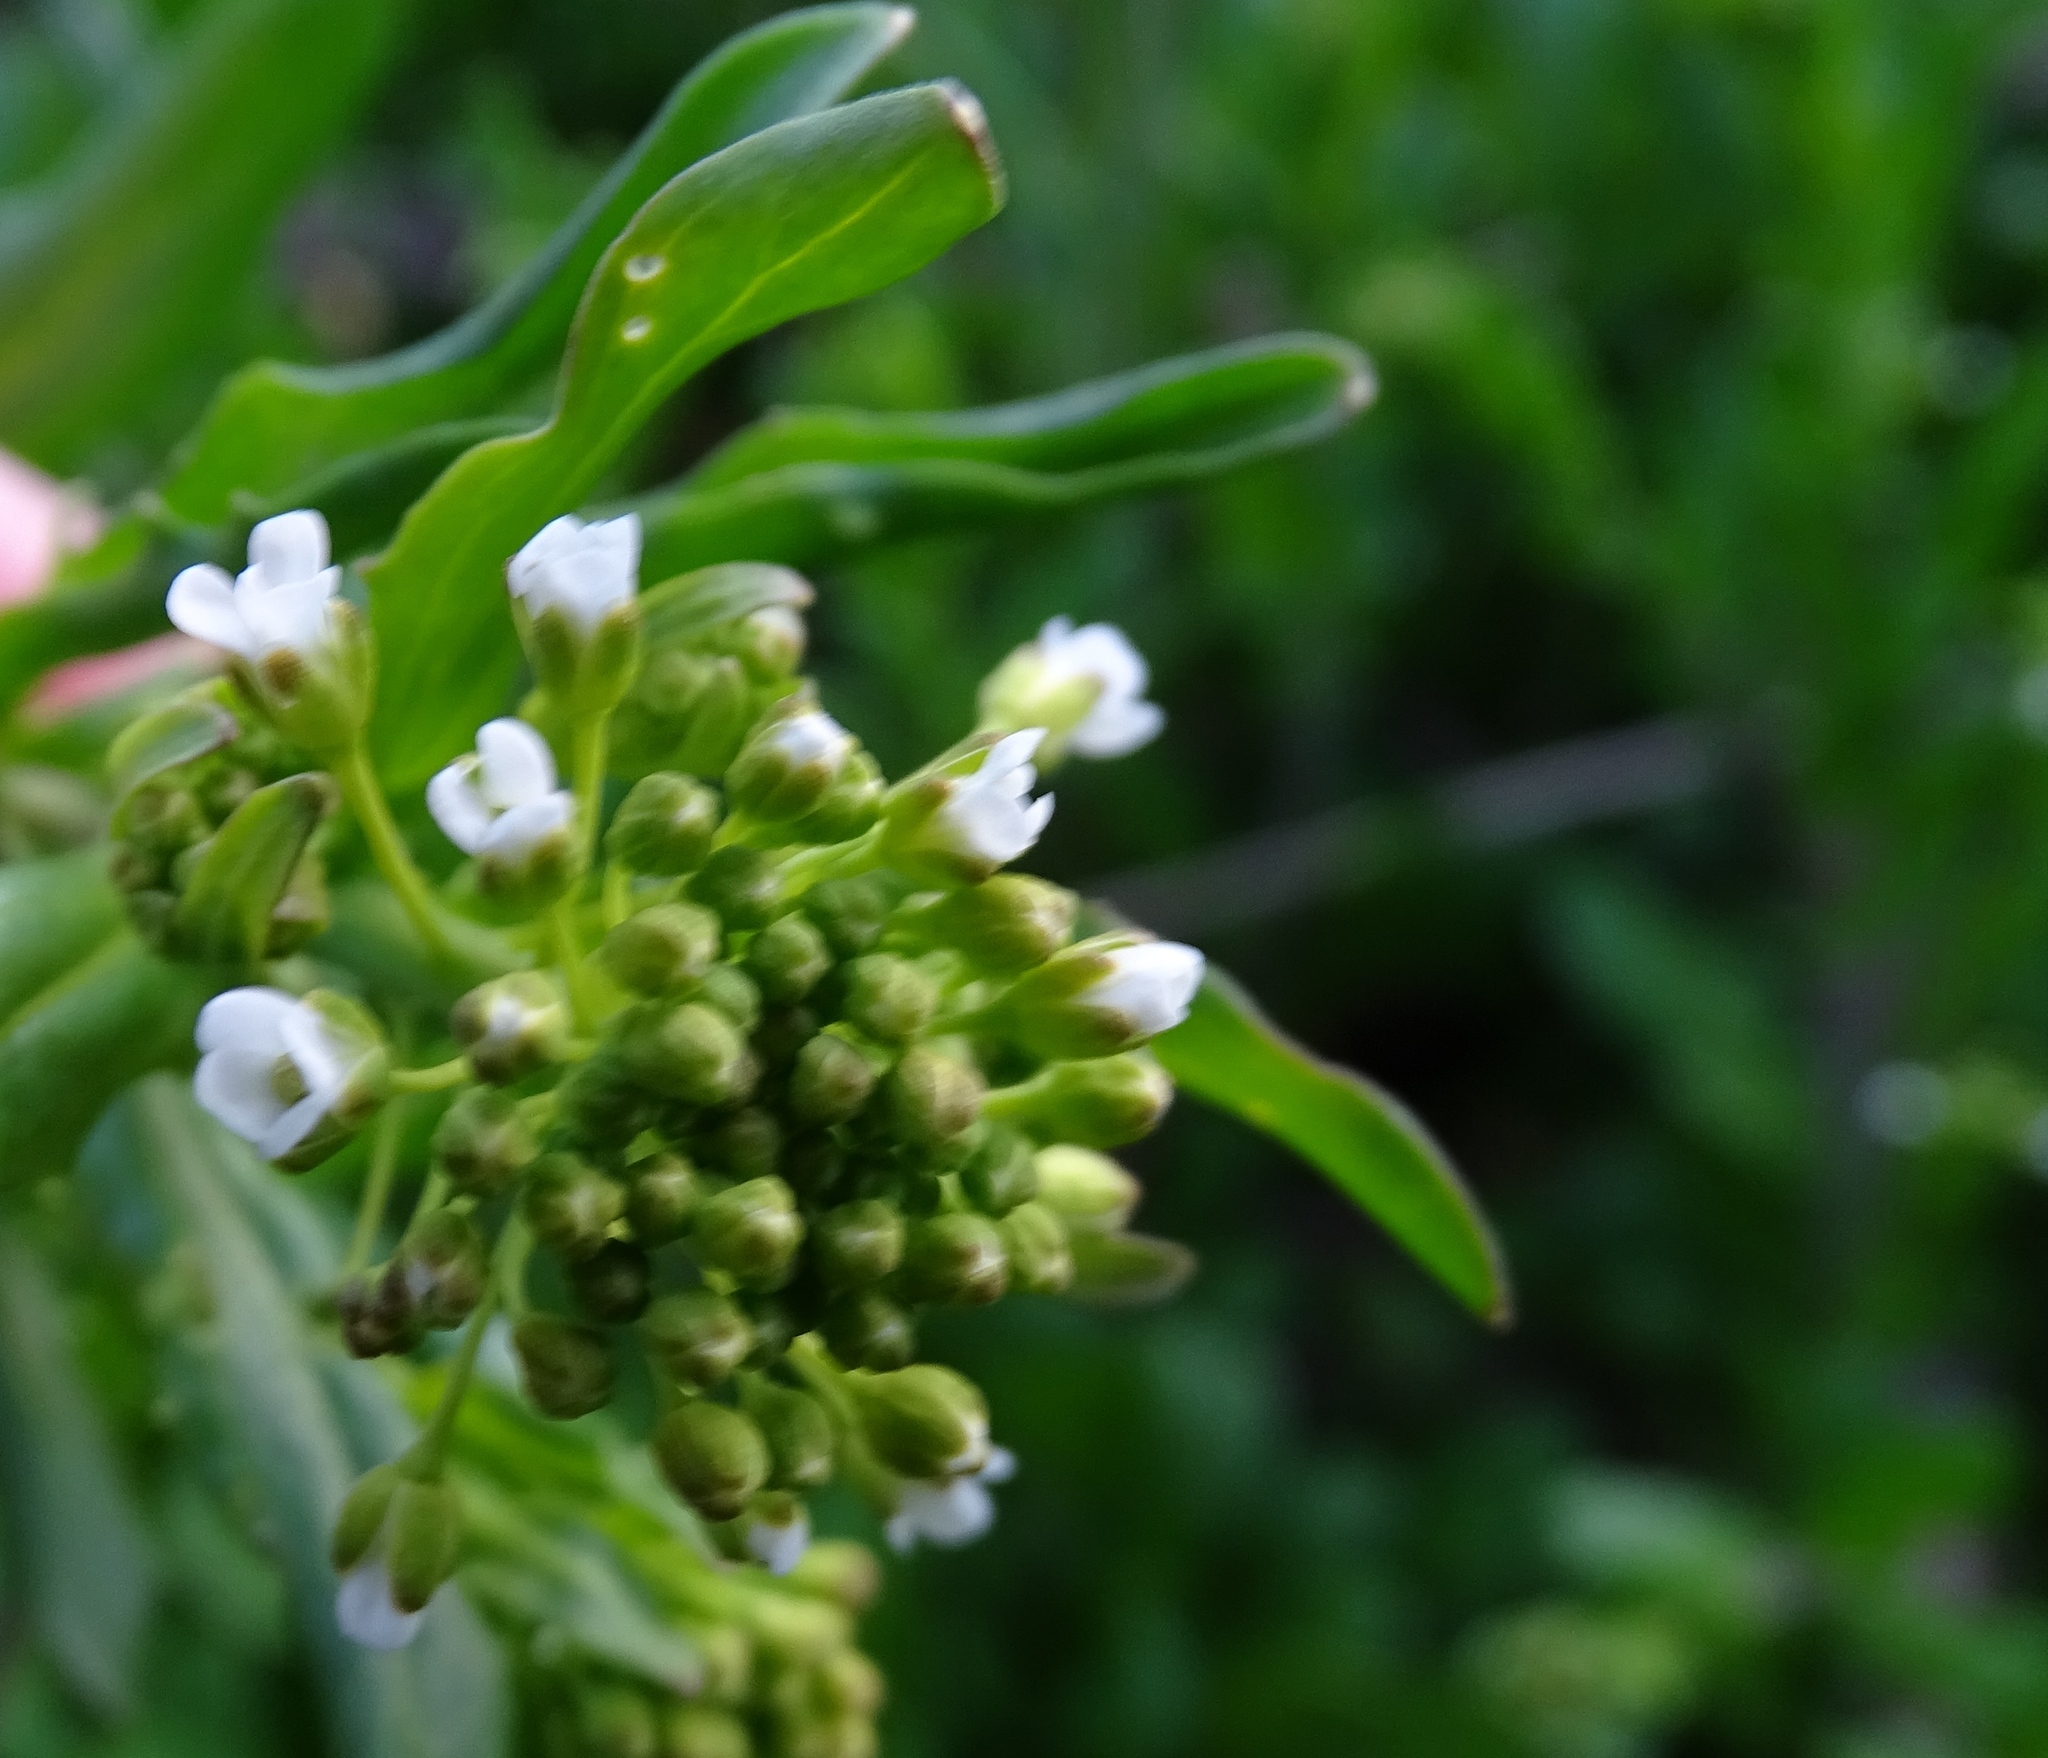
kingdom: Plantae
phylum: Tracheophyta
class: Magnoliopsida
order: Brassicales
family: Brassicaceae
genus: Mummenhoffia
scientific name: Mummenhoffia alliacea
